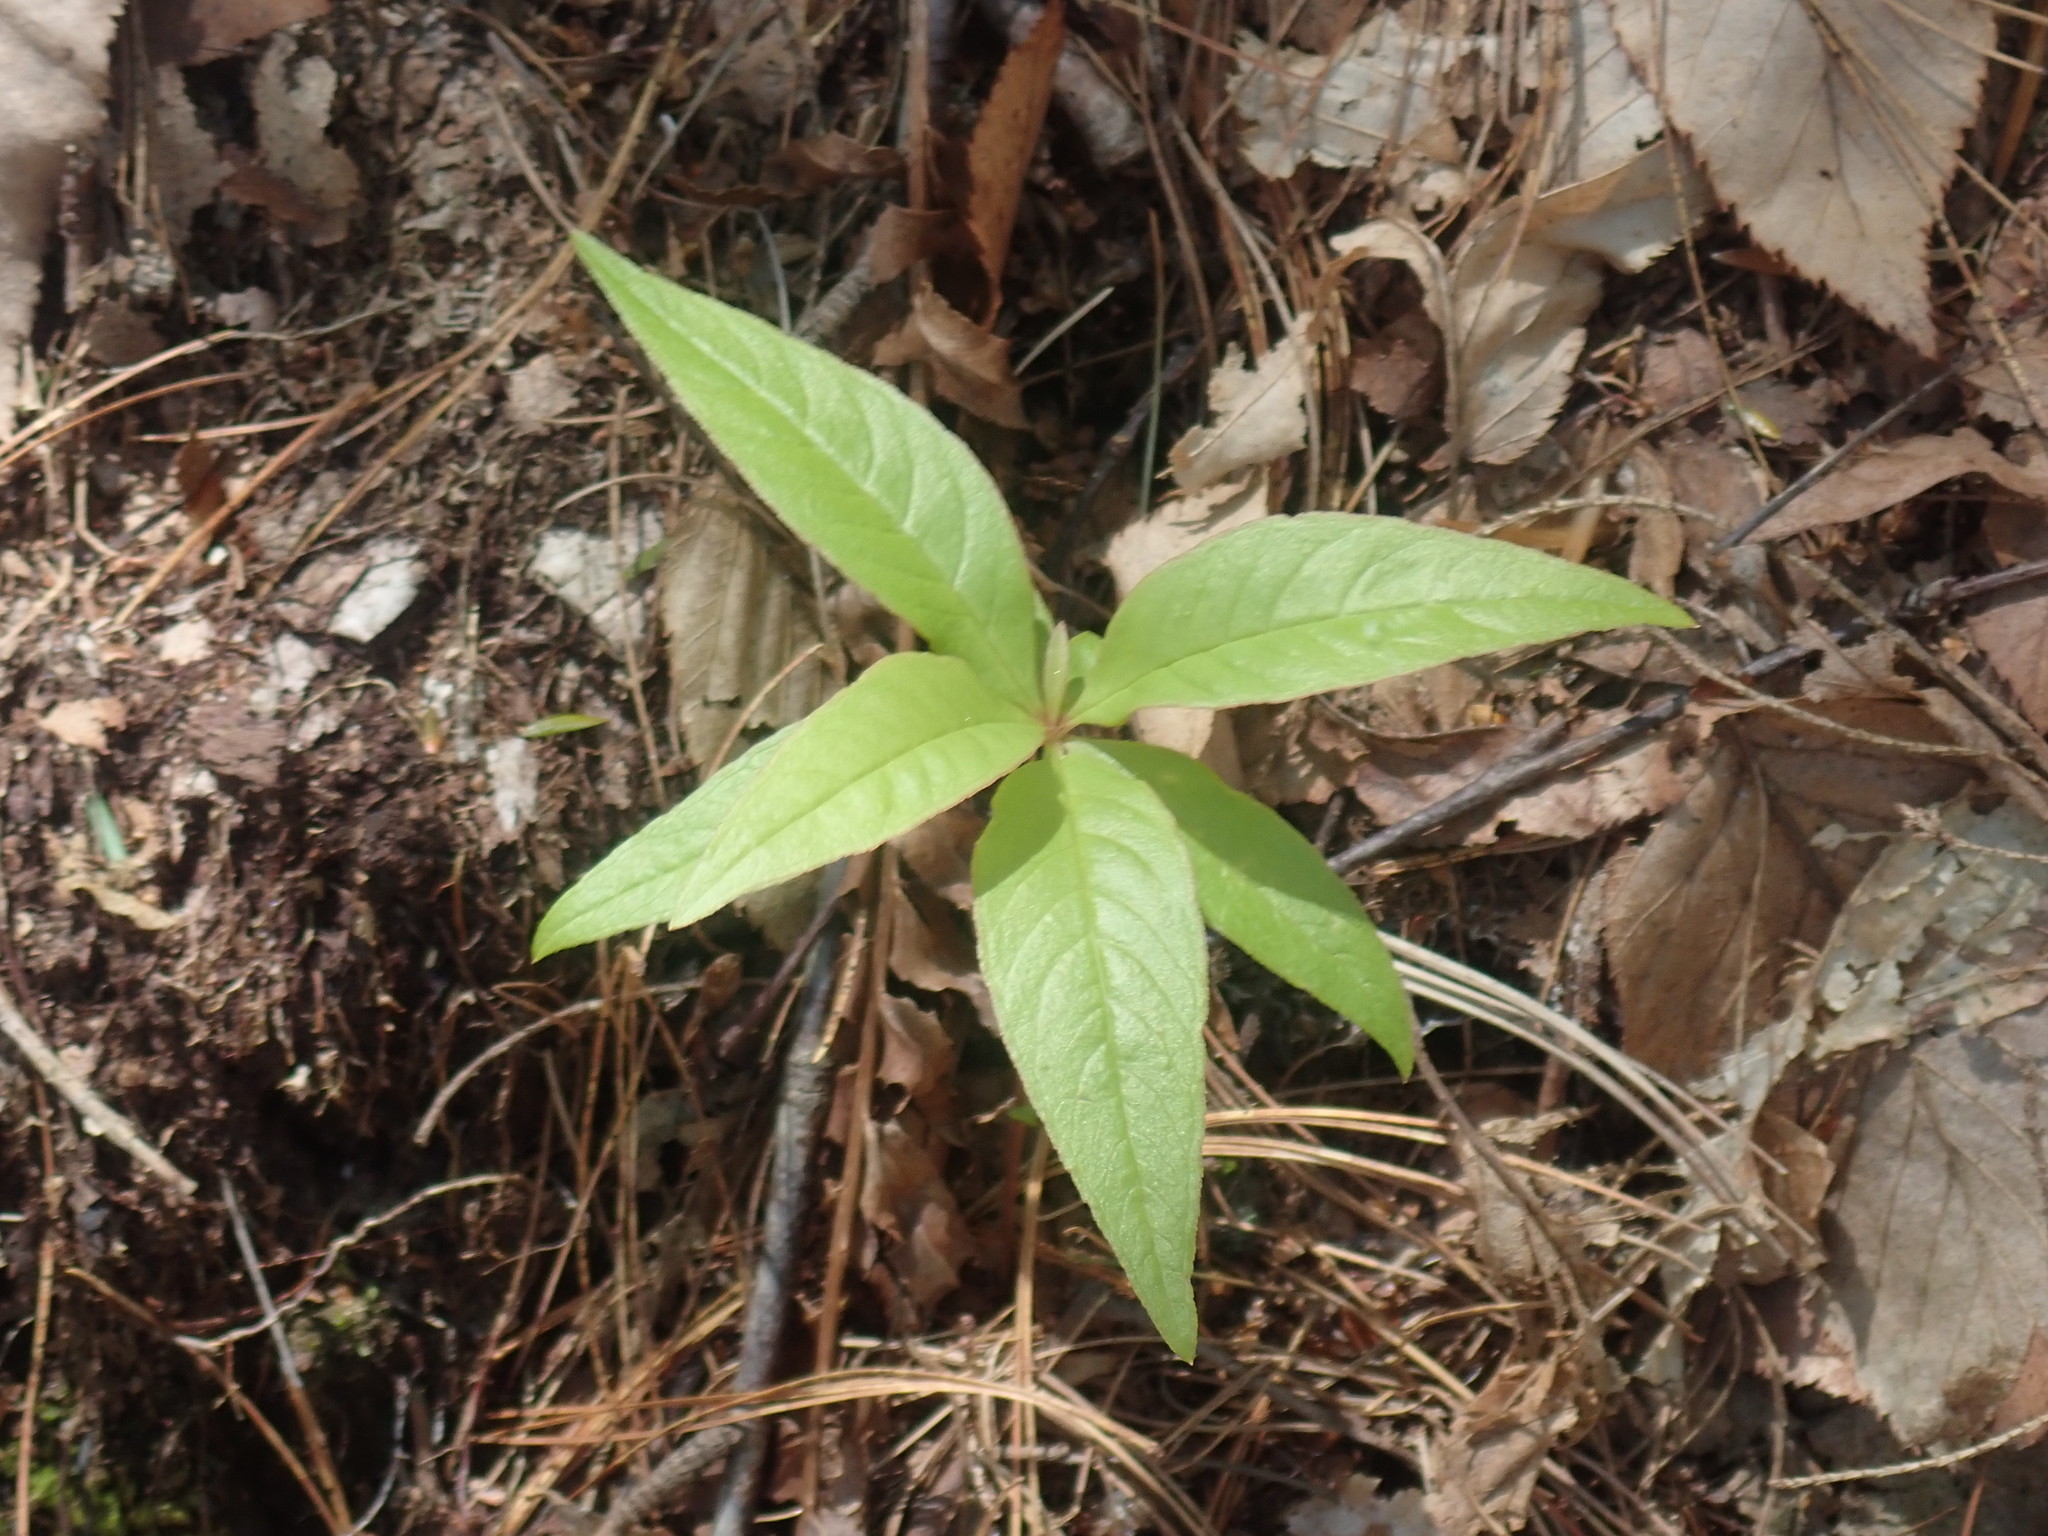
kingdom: Plantae
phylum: Tracheophyta
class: Magnoliopsida
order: Ericales
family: Primulaceae
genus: Lysimachia
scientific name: Lysimachia borealis
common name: American starflower
